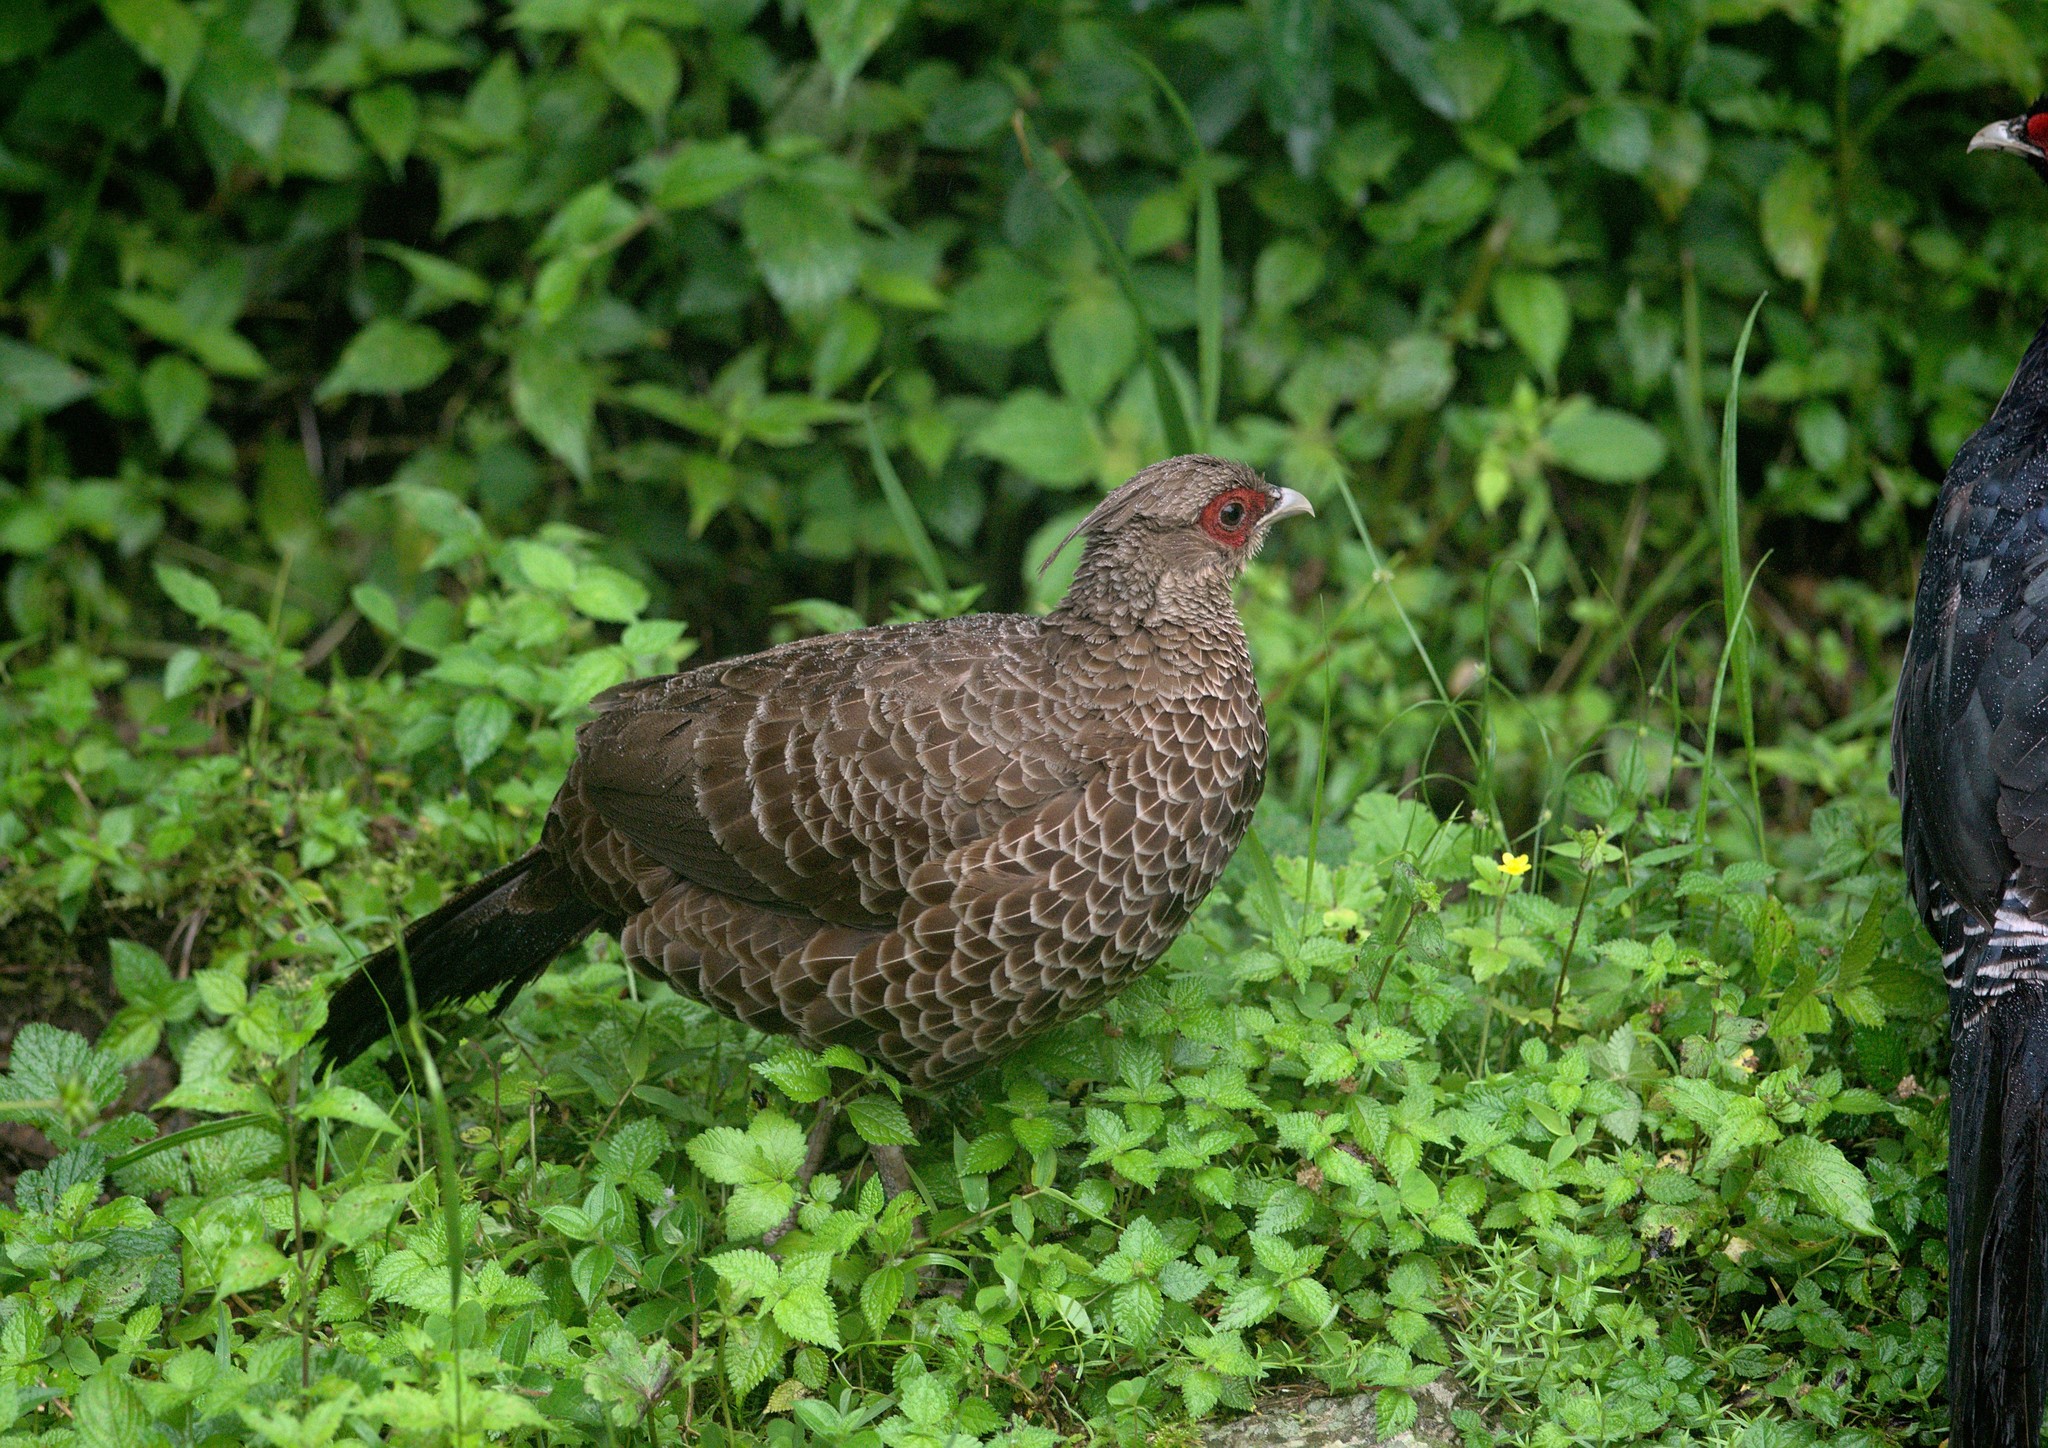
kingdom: Animalia
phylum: Chordata
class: Aves
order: Galliformes
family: Phasianidae
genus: Lophura
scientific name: Lophura leucomelanos
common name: Kalij pheasant
